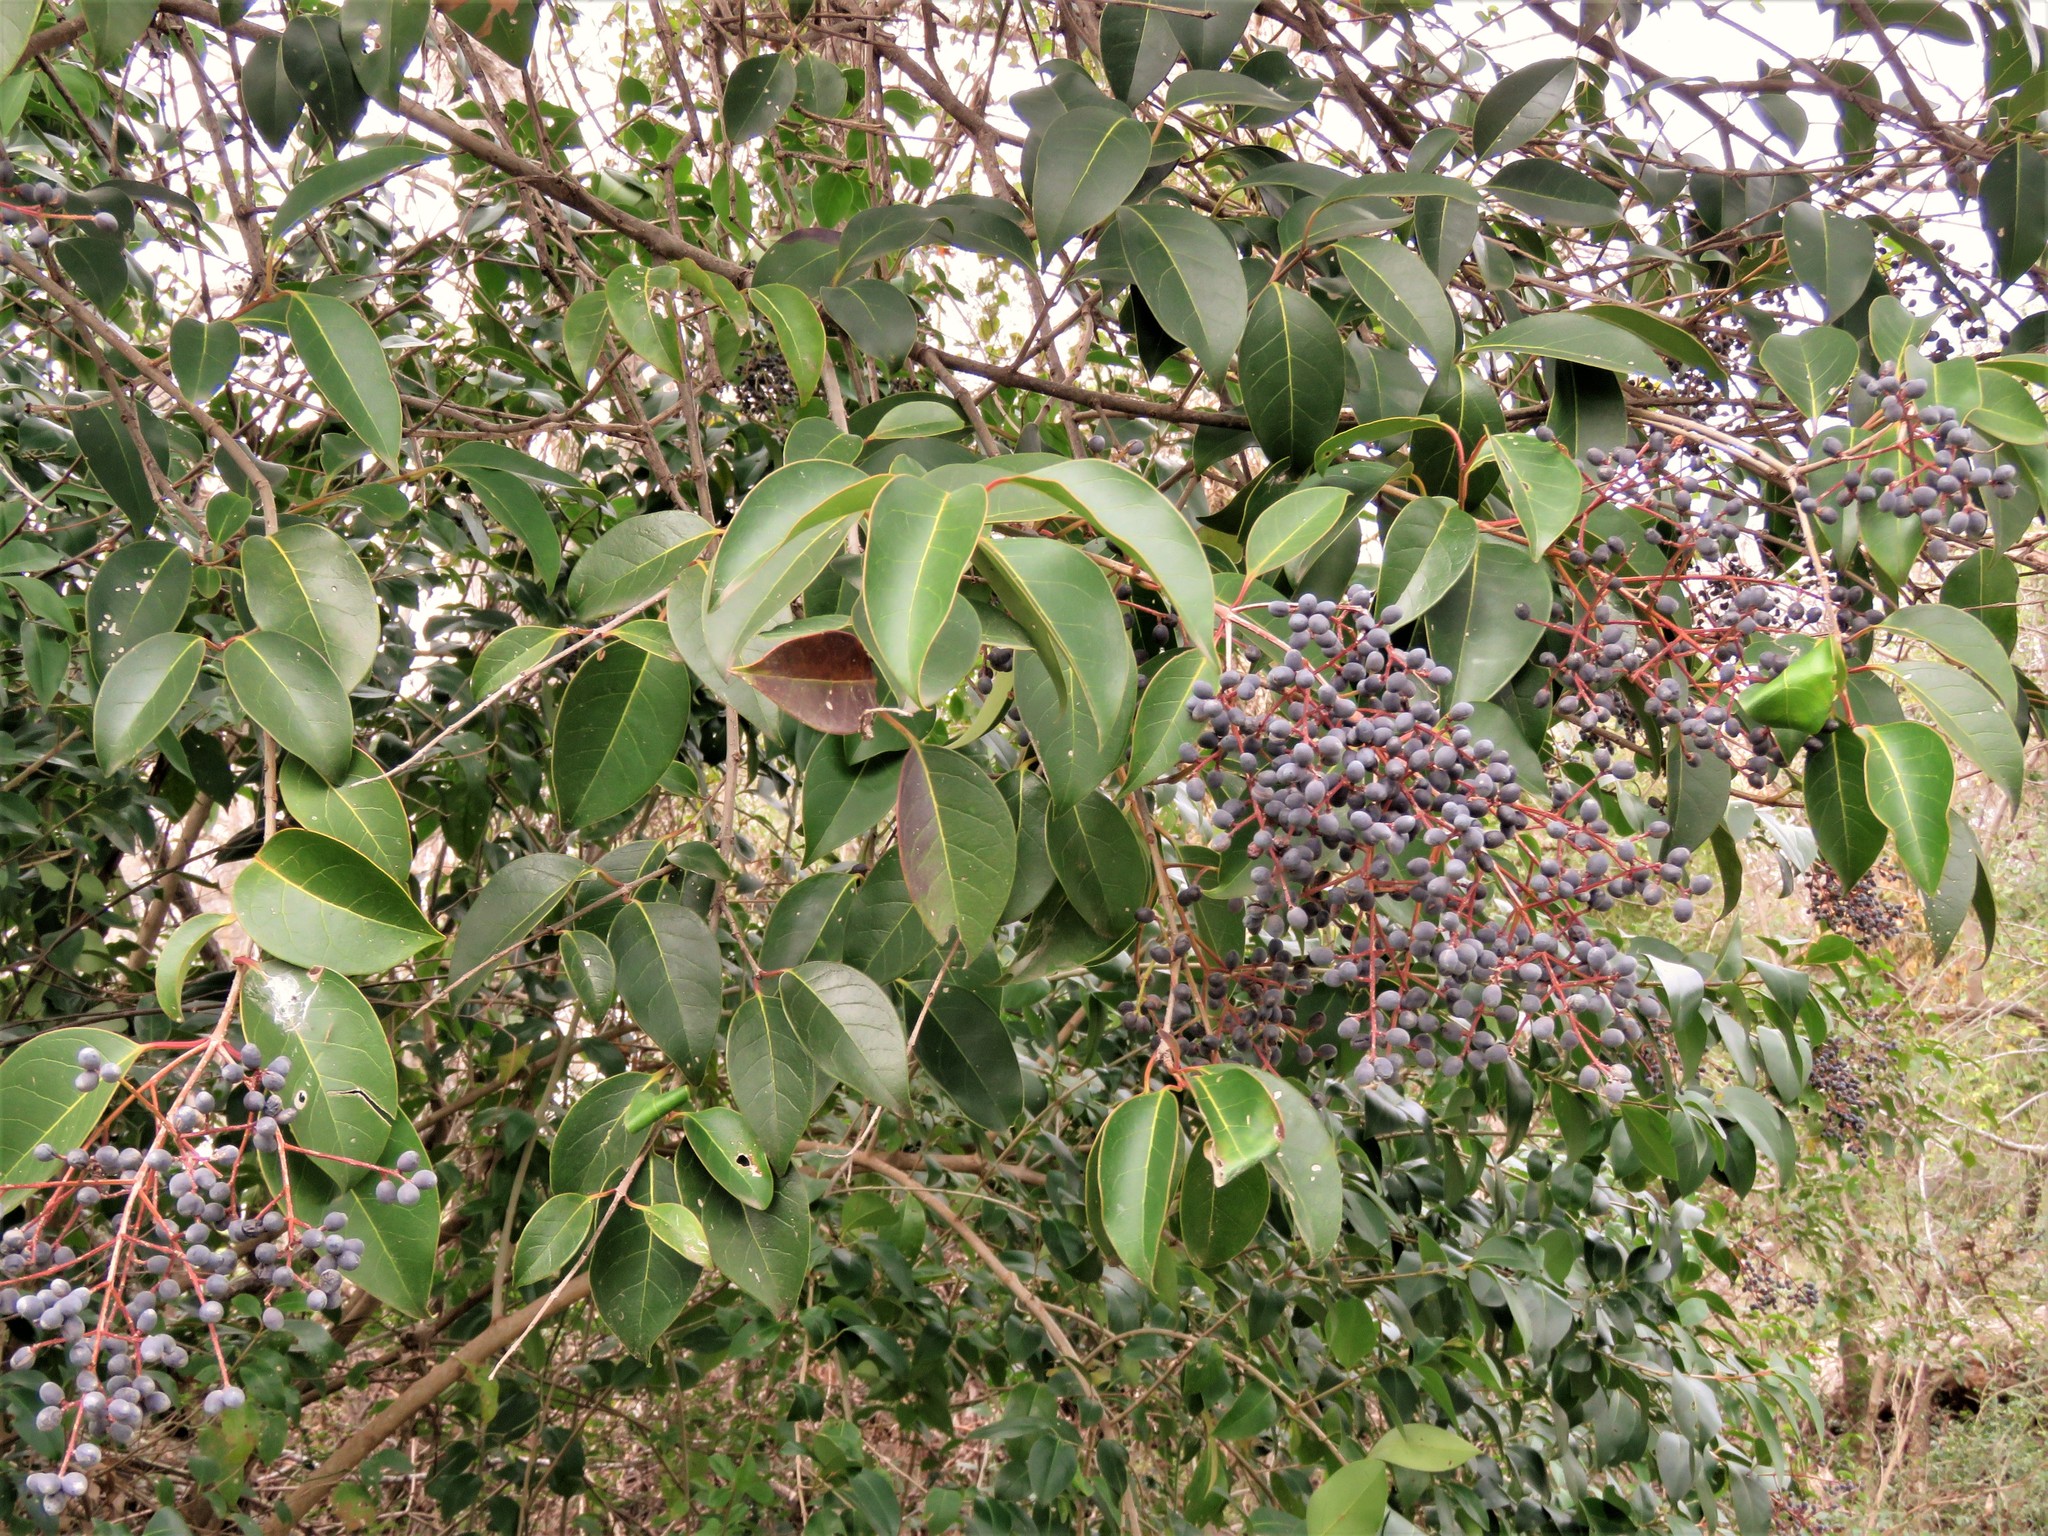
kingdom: Plantae
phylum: Tracheophyta
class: Magnoliopsida
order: Lamiales
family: Oleaceae
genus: Ligustrum
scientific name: Ligustrum lucidum
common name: Glossy privet
